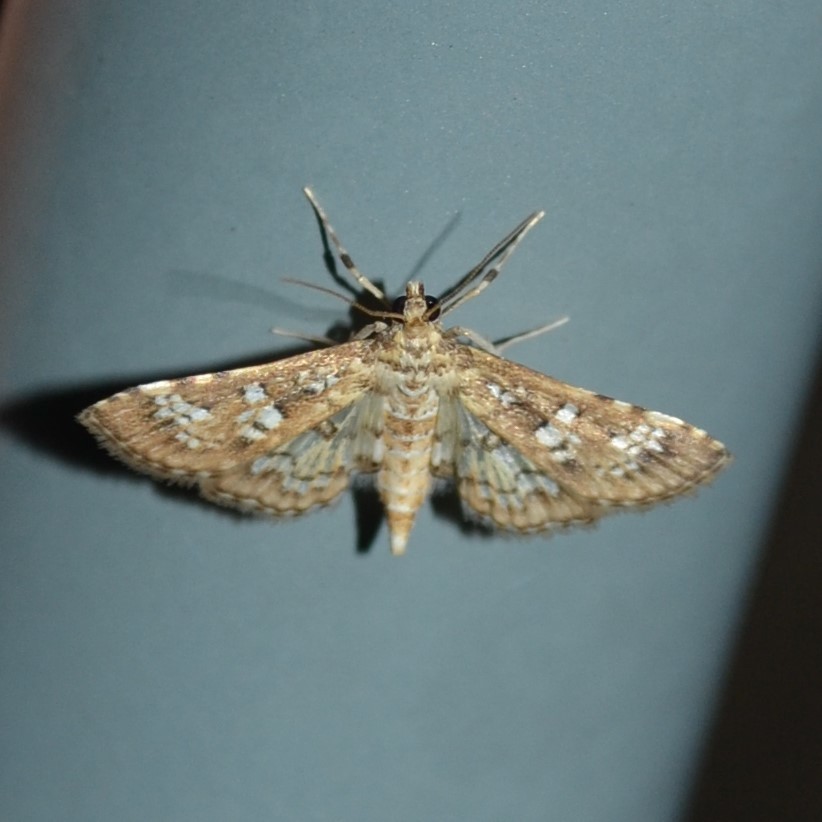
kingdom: Animalia
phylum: Arthropoda
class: Insecta
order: Lepidoptera
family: Crambidae
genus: Samea
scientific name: Samea multiplicalis
